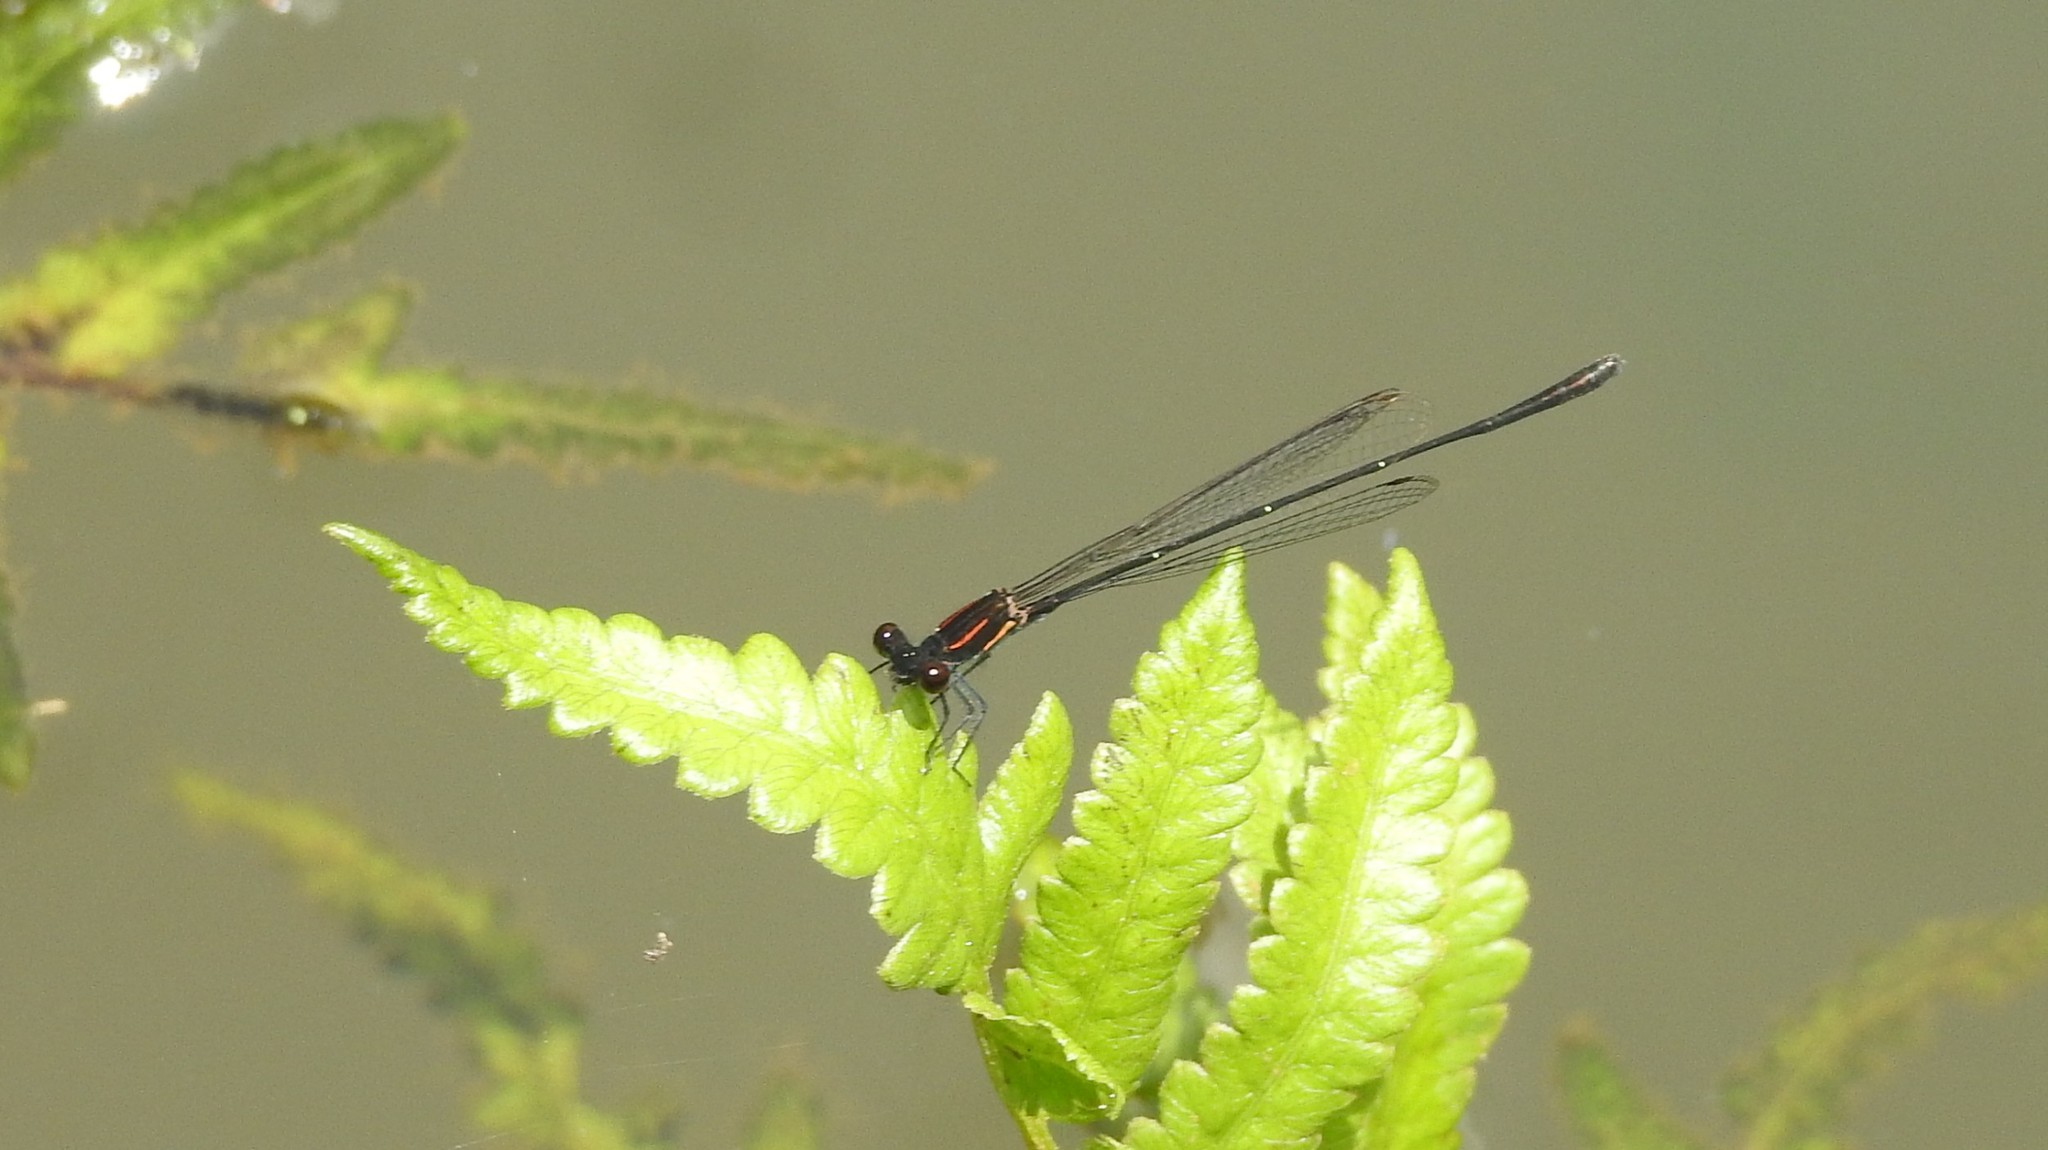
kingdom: Animalia
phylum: Arthropoda
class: Insecta
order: Odonata
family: Platycnemididae
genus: Prodasineura
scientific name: Prodasineura verticalis
